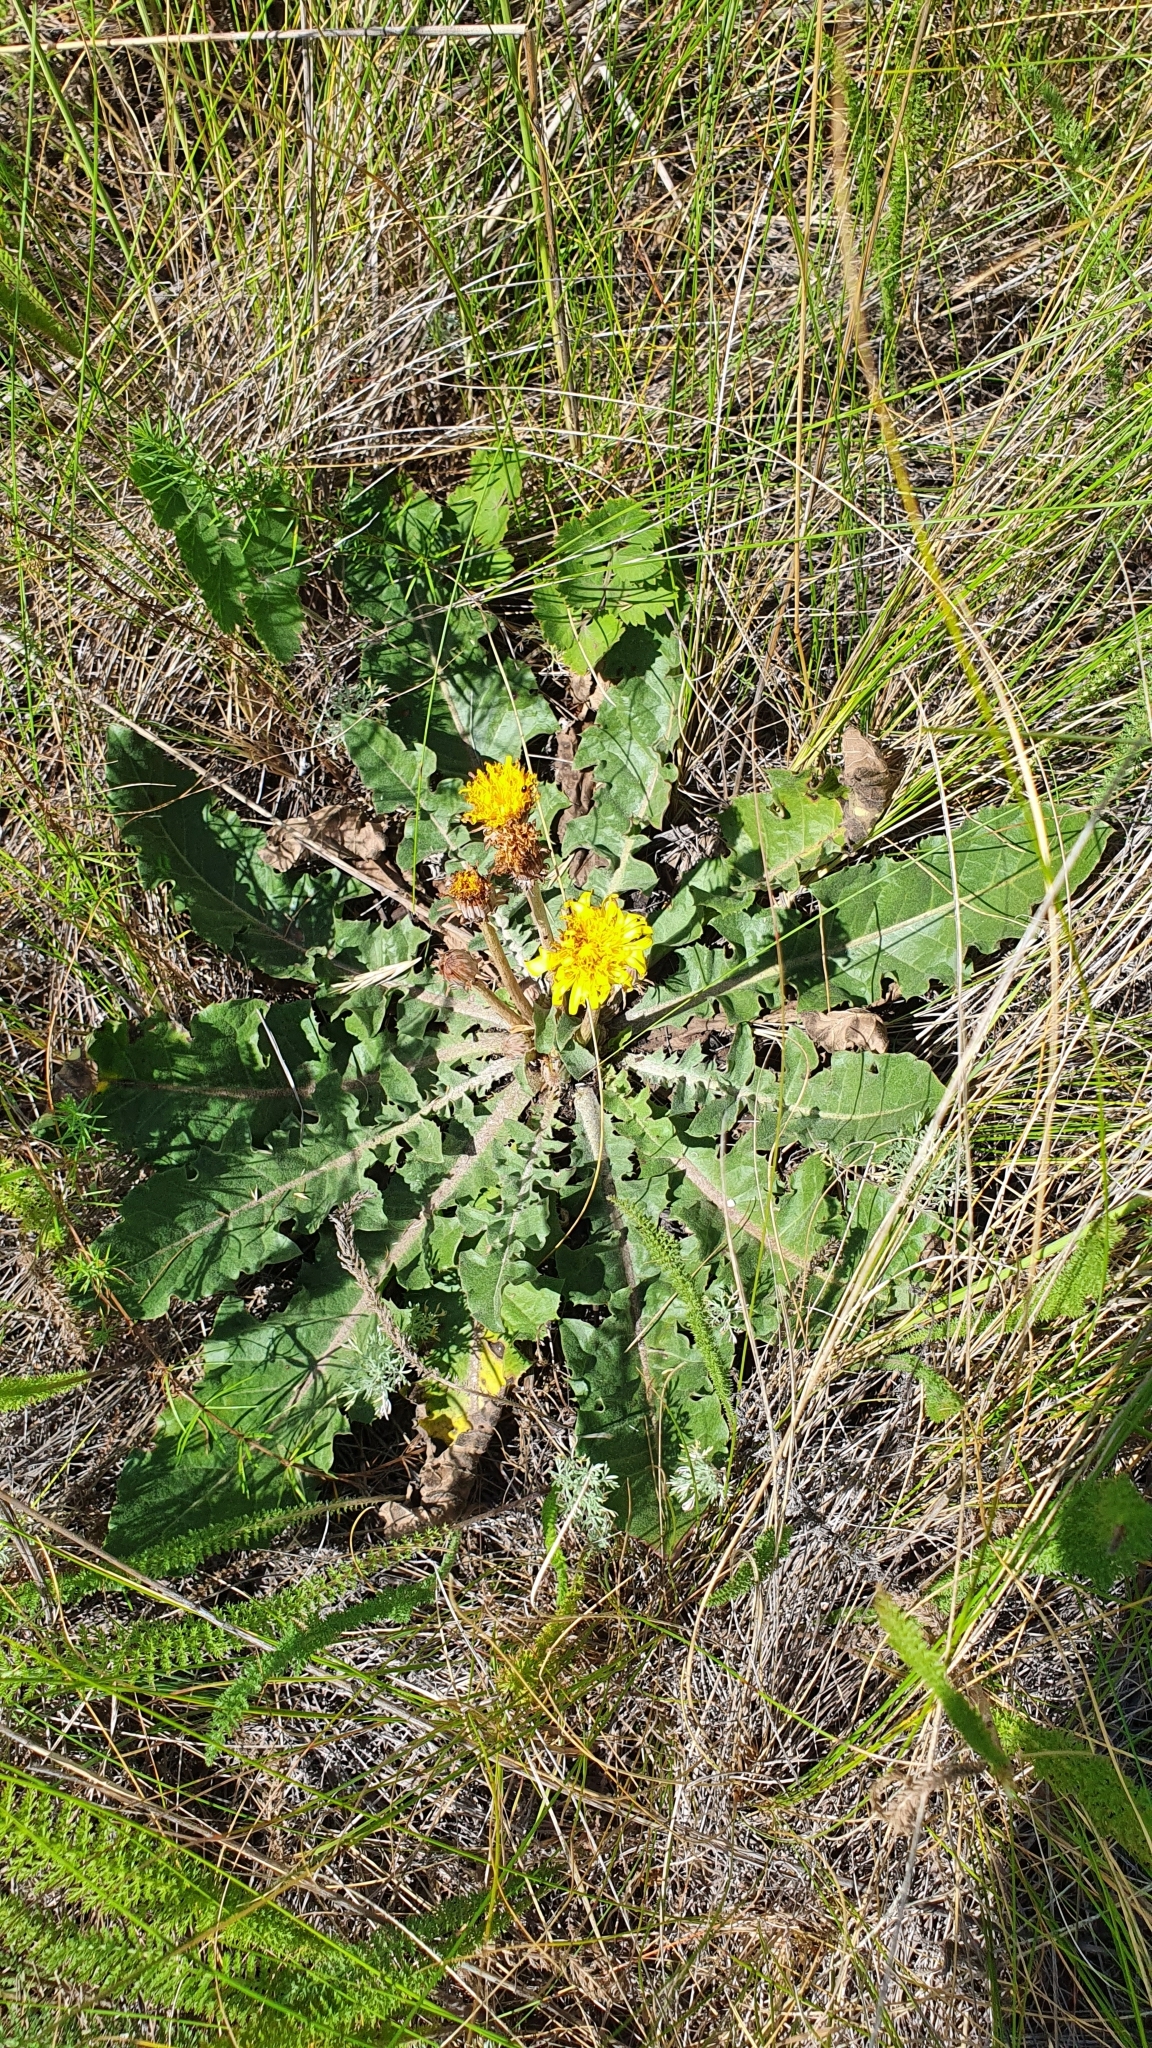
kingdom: Plantae
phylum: Tracheophyta
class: Magnoliopsida
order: Asterales
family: Asteraceae
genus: Taraxacum
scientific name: Taraxacum serotinum
